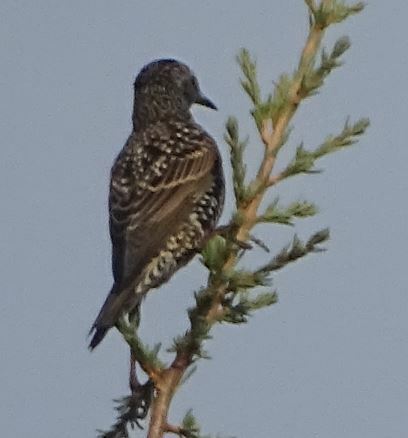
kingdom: Animalia
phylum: Chordata
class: Aves
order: Passeriformes
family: Sturnidae
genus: Sturnus
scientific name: Sturnus vulgaris
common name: Common starling
